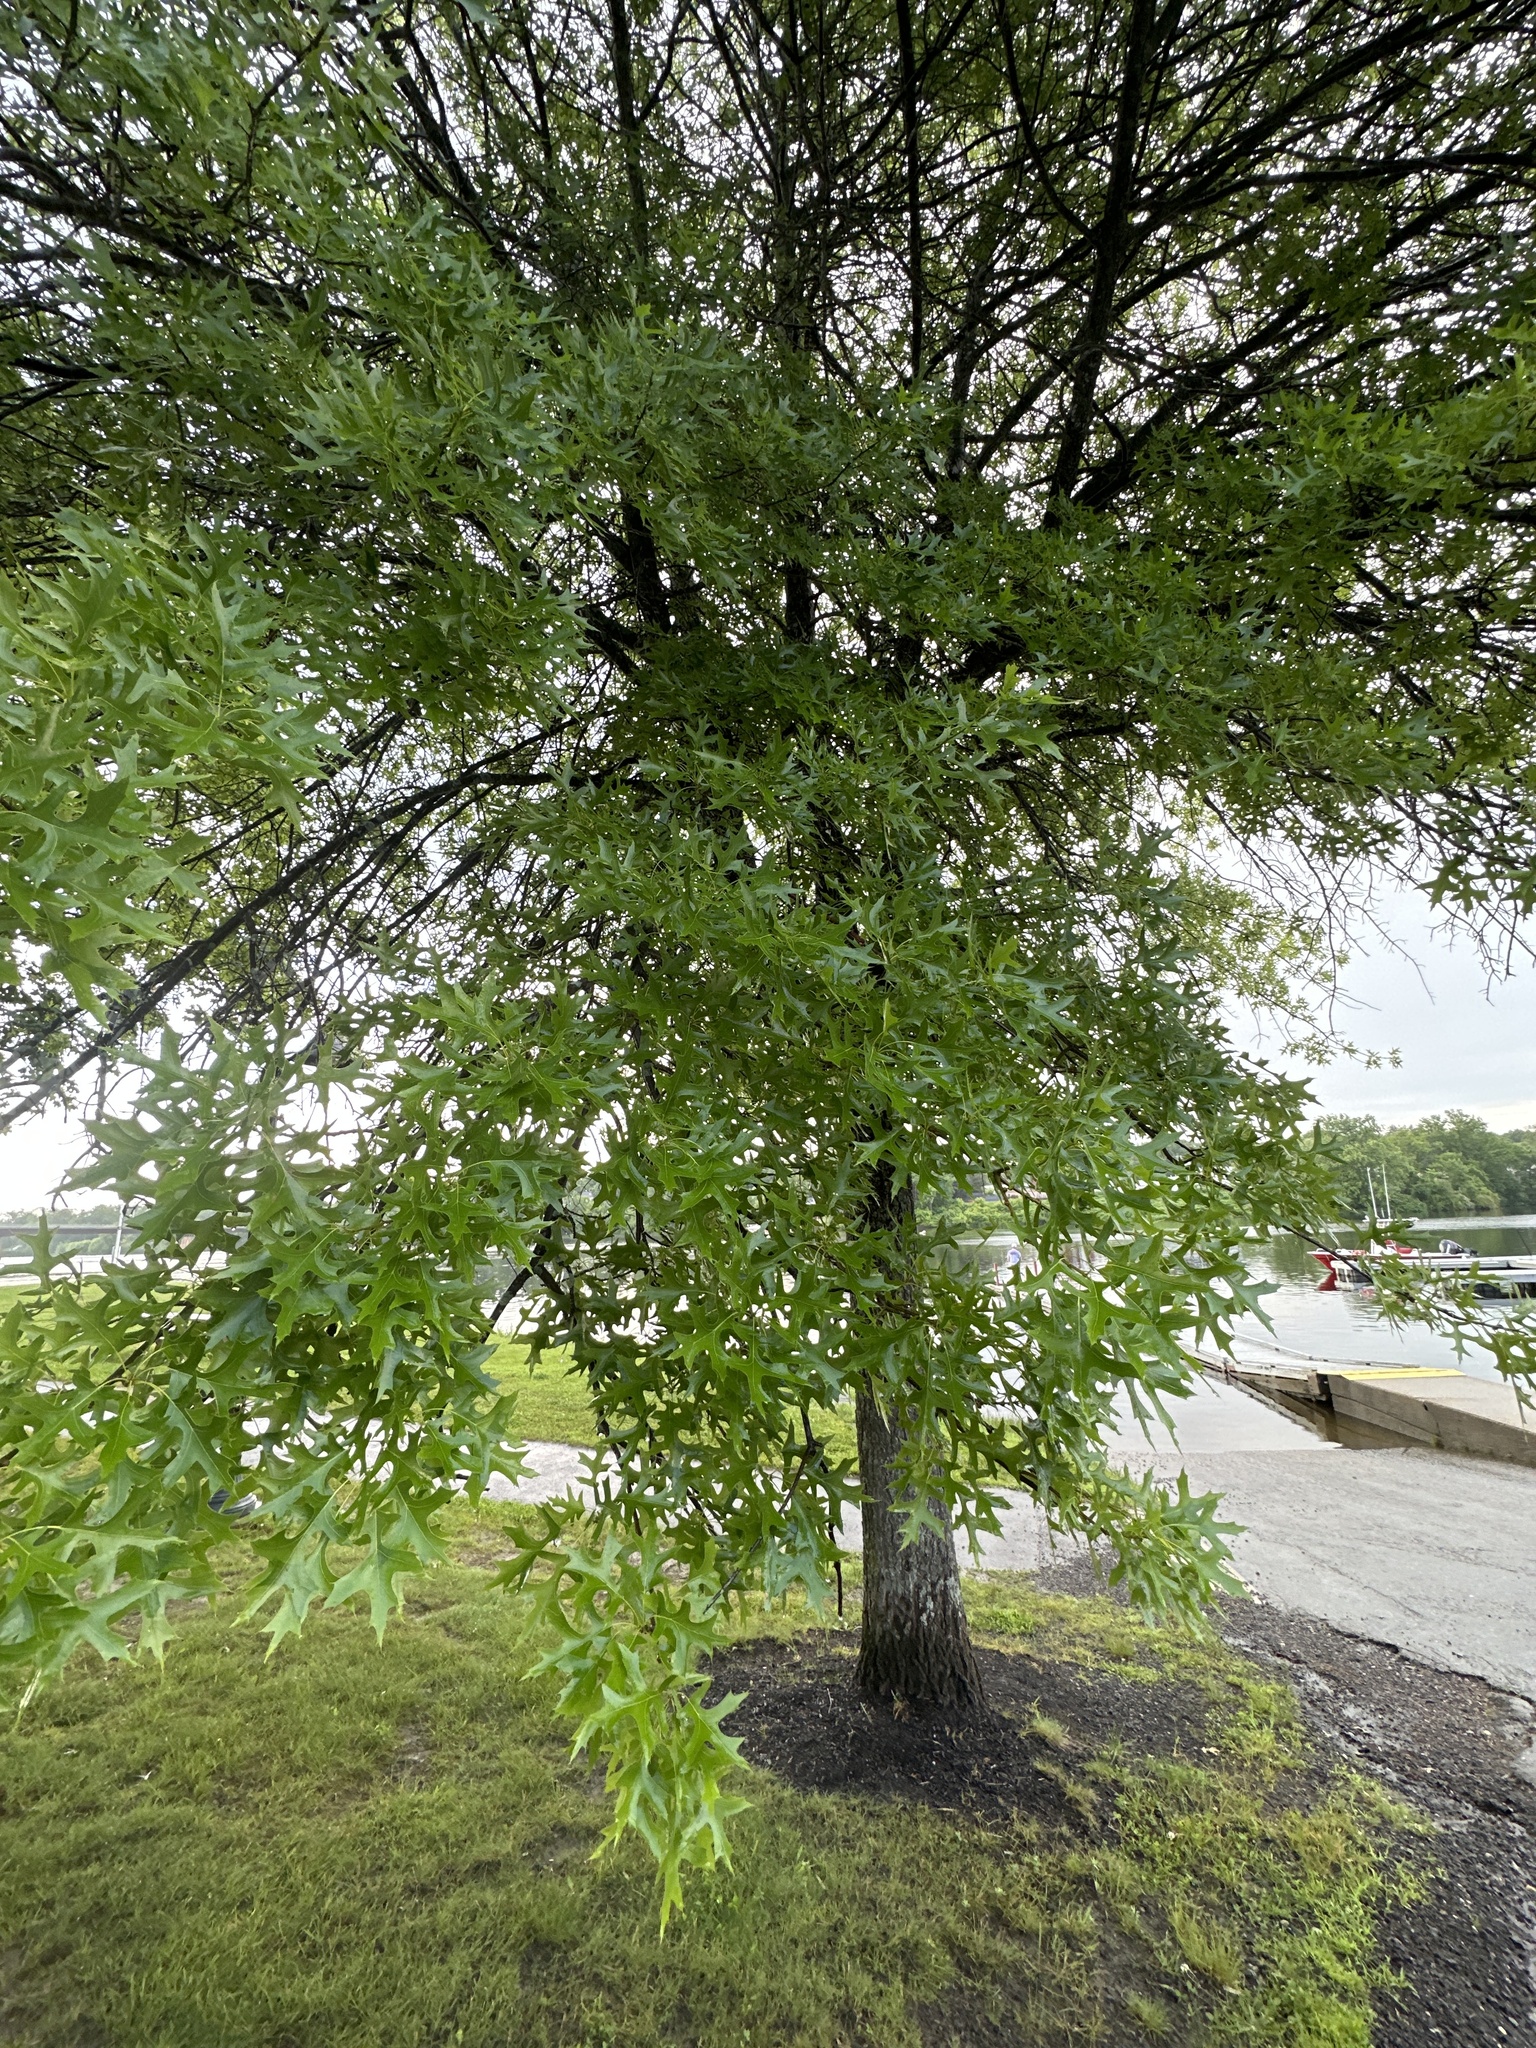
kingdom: Plantae
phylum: Tracheophyta
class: Magnoliopsida
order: Fagales
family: Fagaceae
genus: Quercus
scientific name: Quercus palustris
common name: Pin oak
